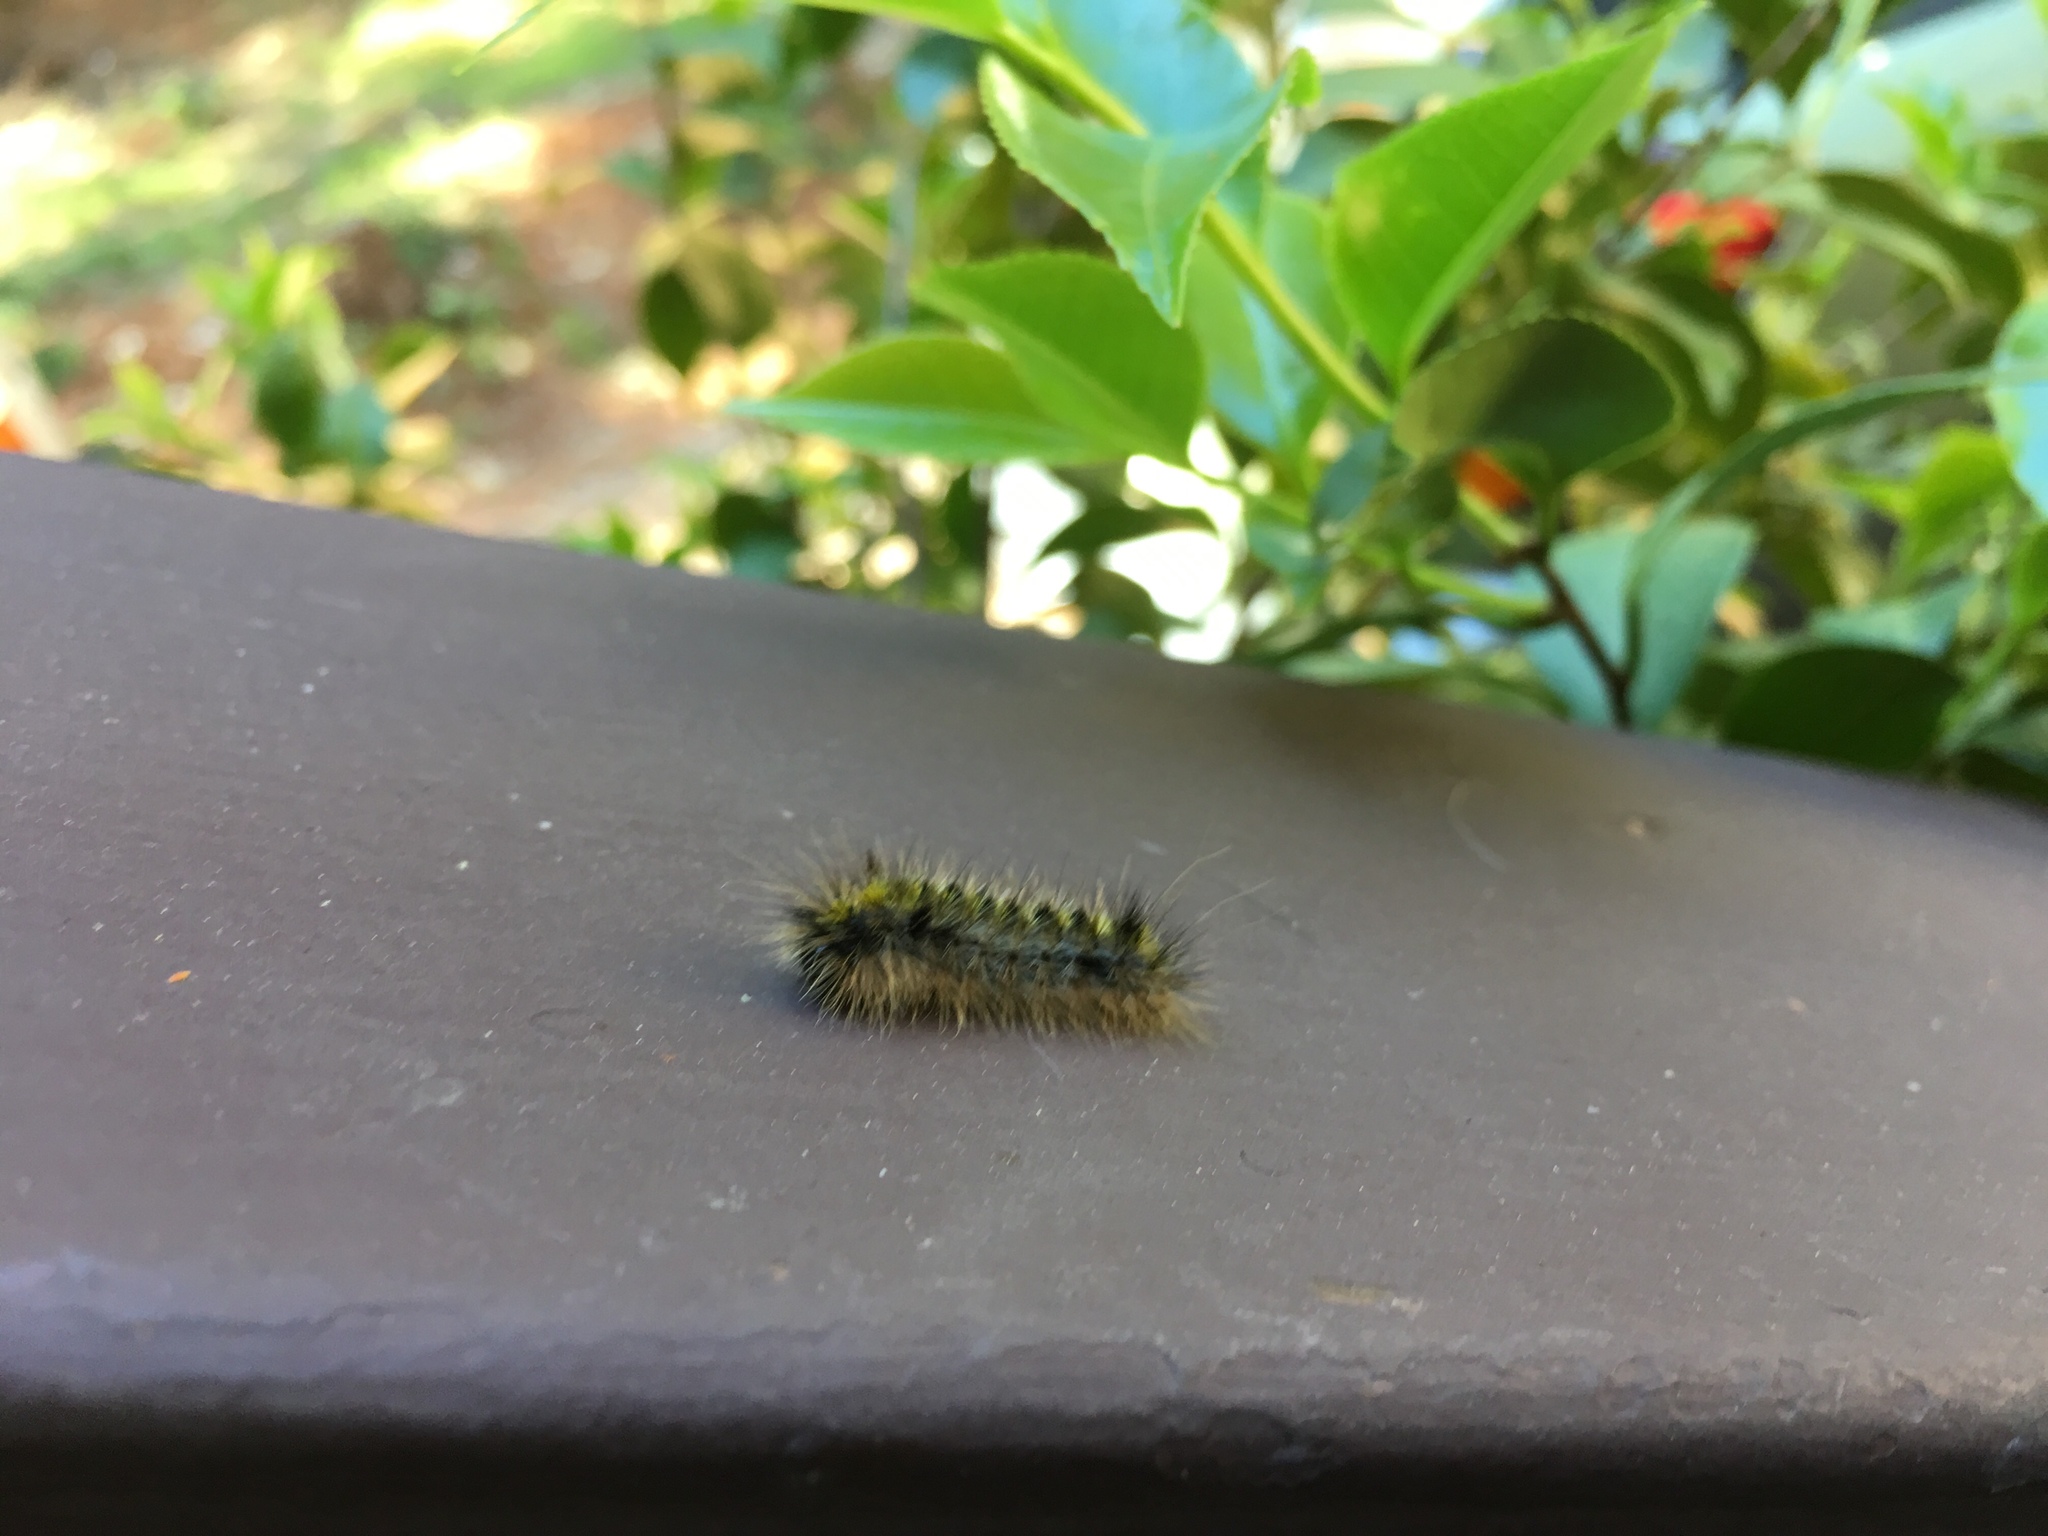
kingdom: Animalia
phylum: Arthropoda
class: Insecta
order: Lepidoptera
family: Erebidae
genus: Lophocampa
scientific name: Lophocampa argentata
